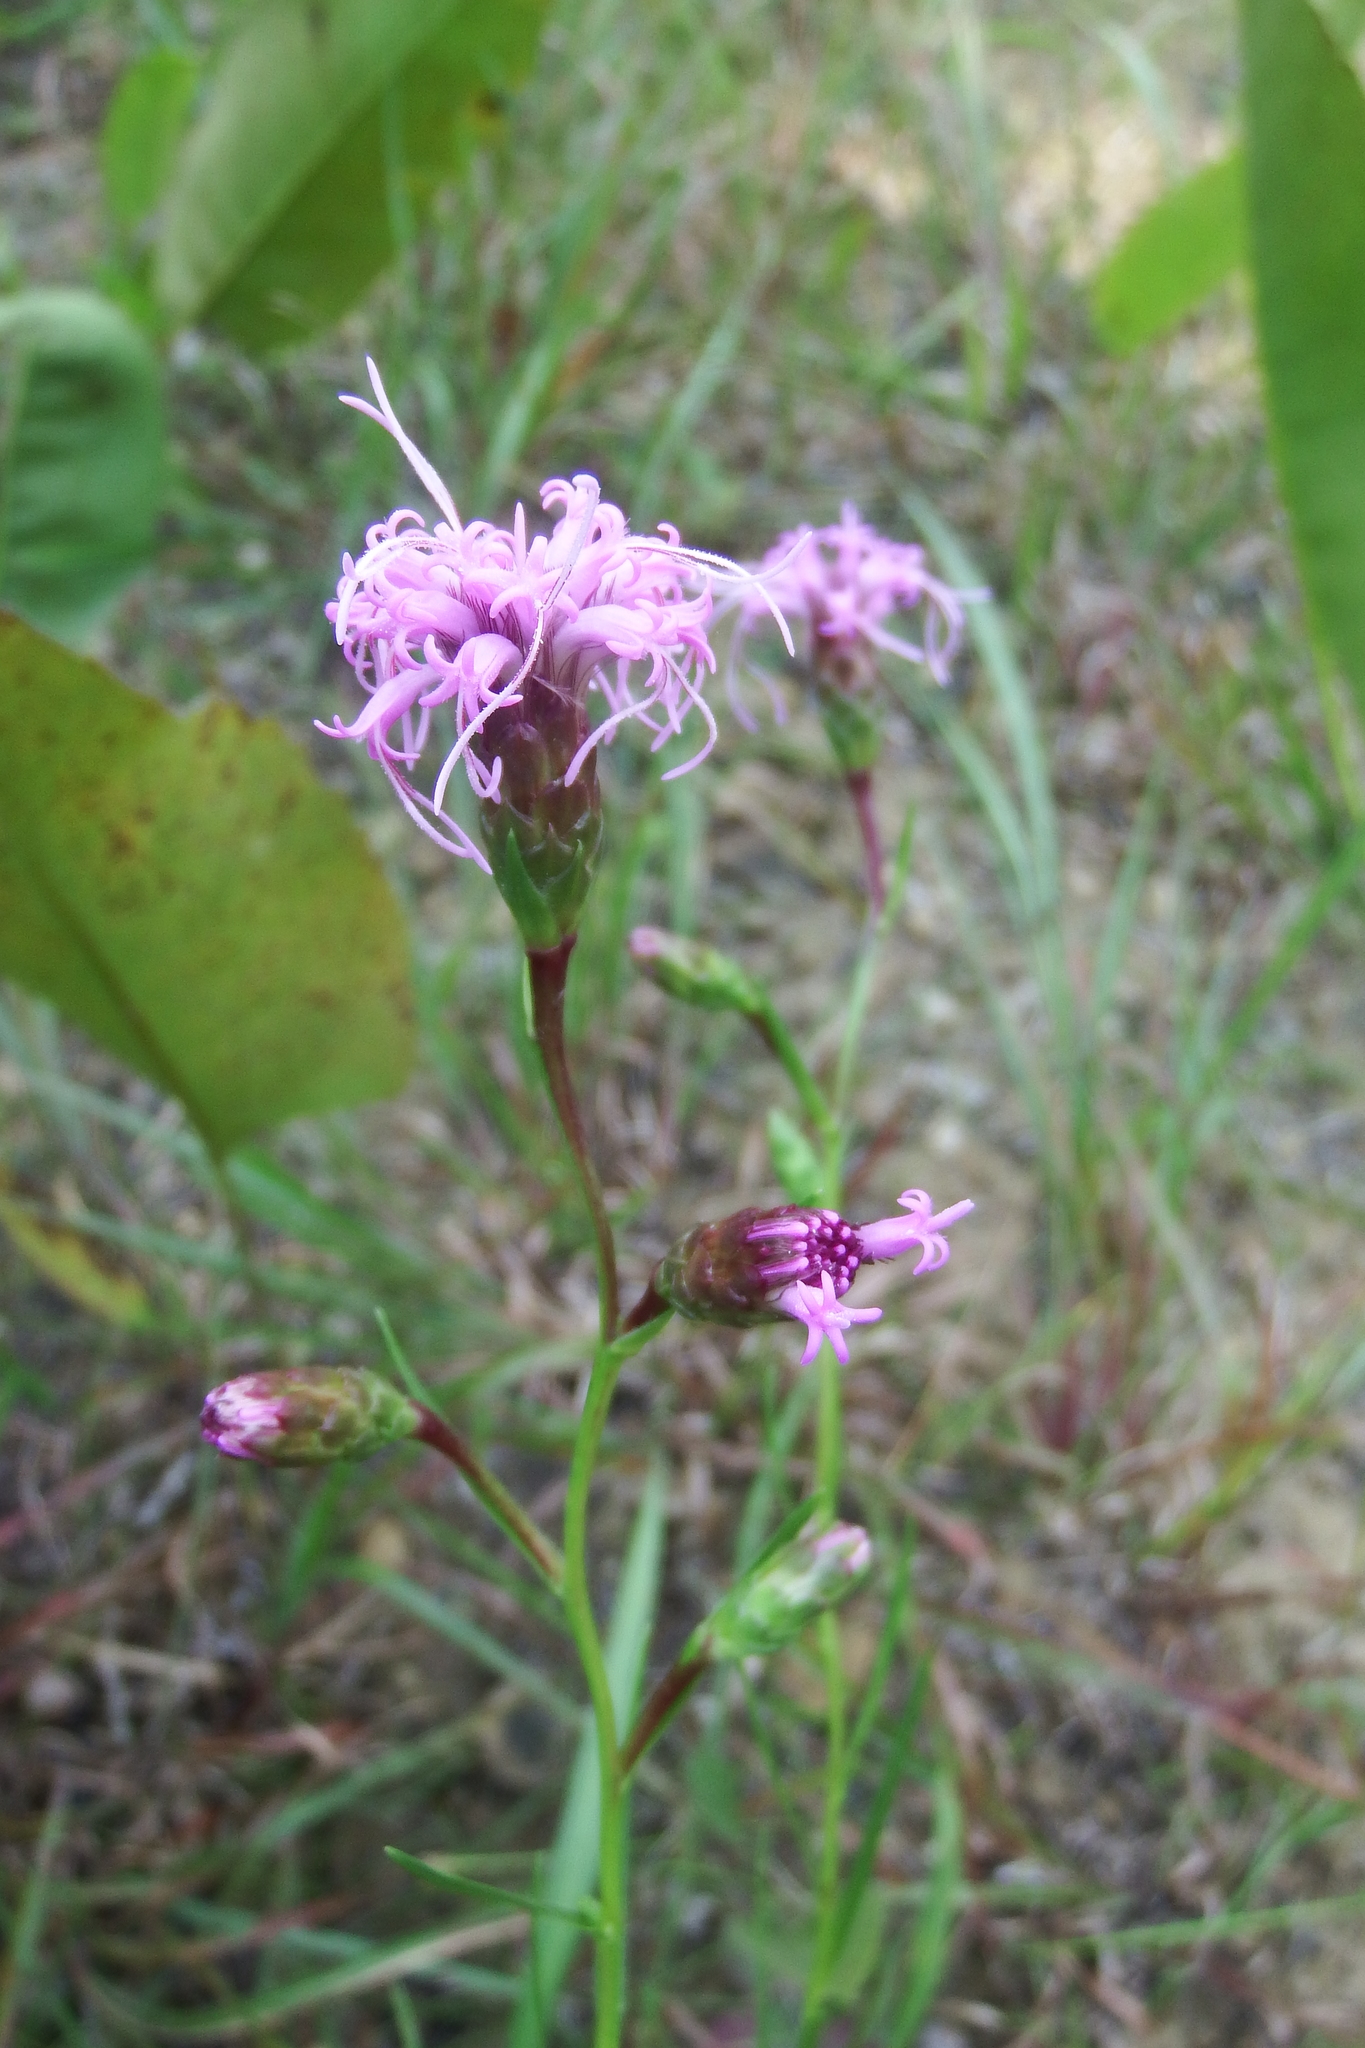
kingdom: Plantae
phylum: Tracheophyta
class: Magnoliopsida
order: Asterales
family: Asteraceae
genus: Liatris
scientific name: Liatris cylindracea
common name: Few-head blazingstar
